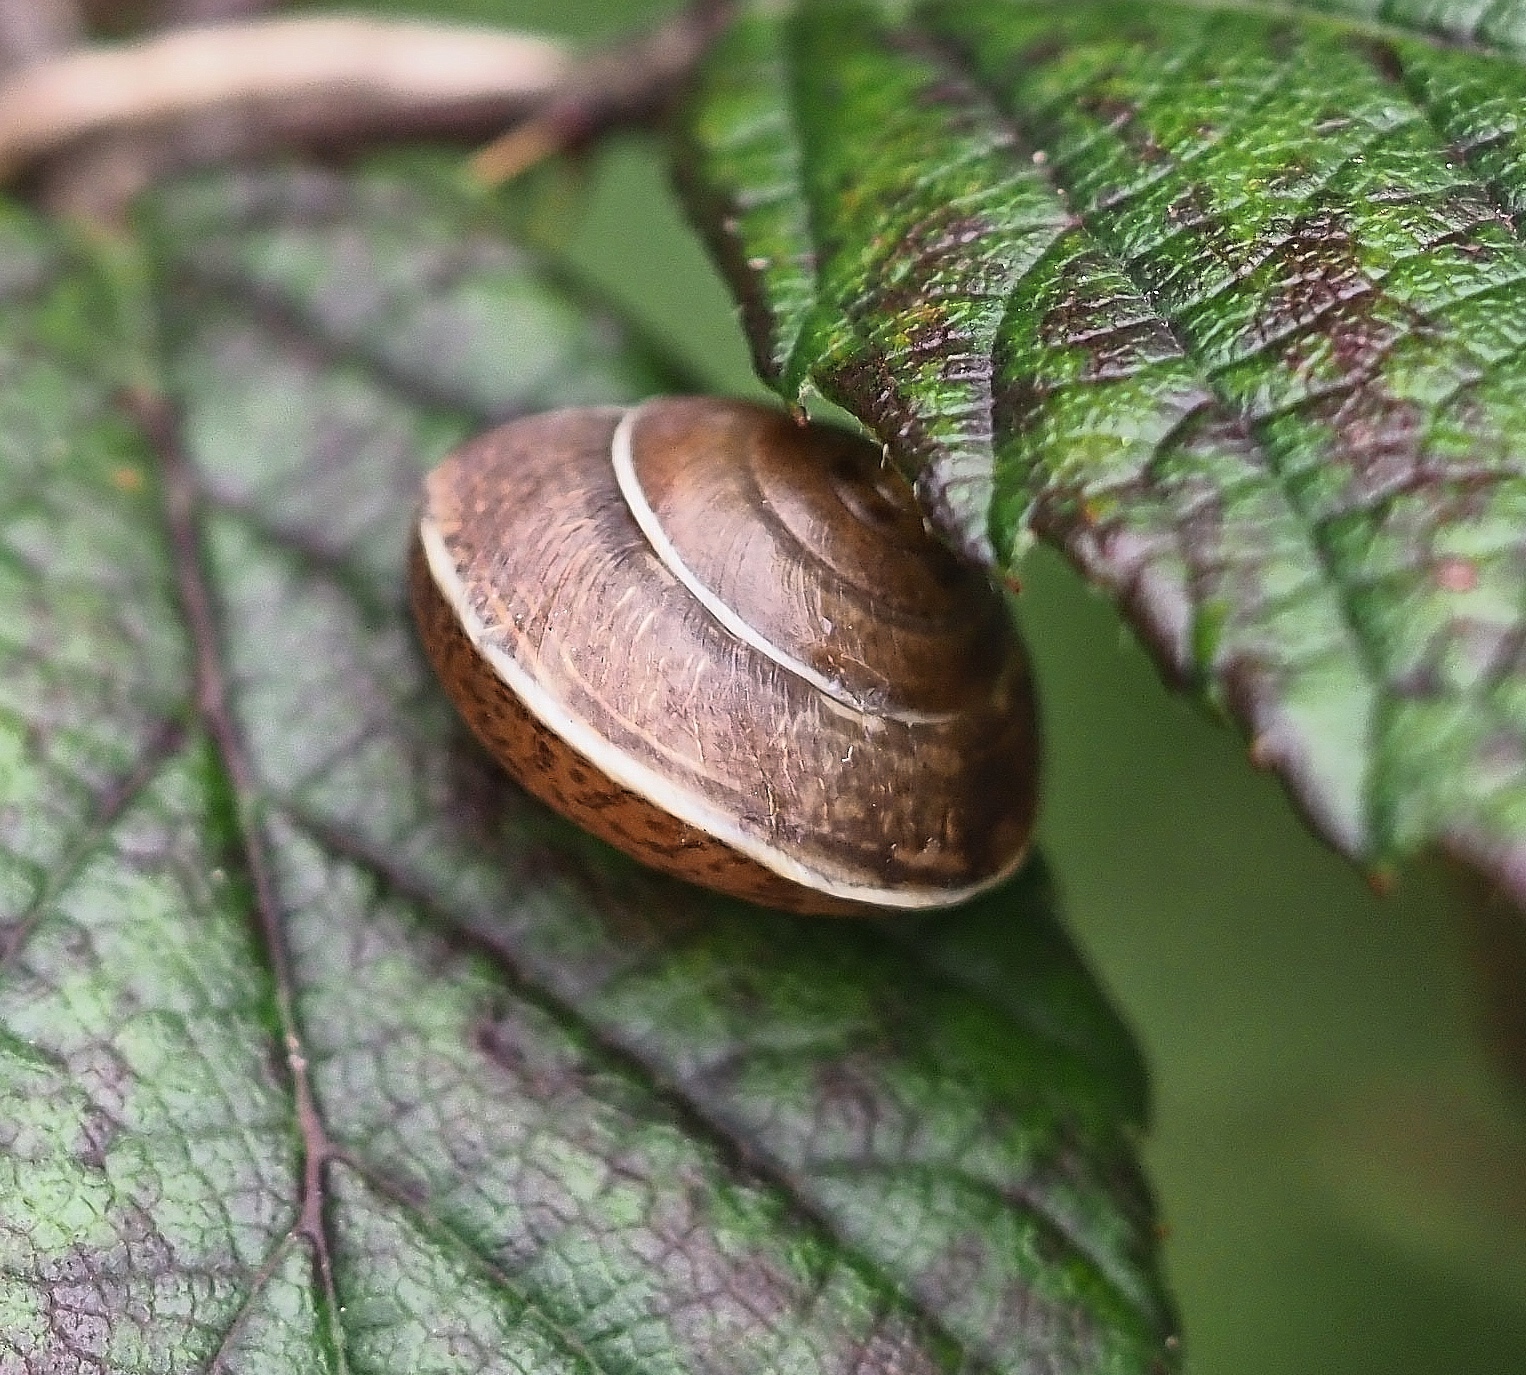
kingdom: Animalia
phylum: Mollusca
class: Gastropoda
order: Stylommatophora
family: Hygromiidae
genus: Hygromia
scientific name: Hygromia cinctella
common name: Girdled snail
